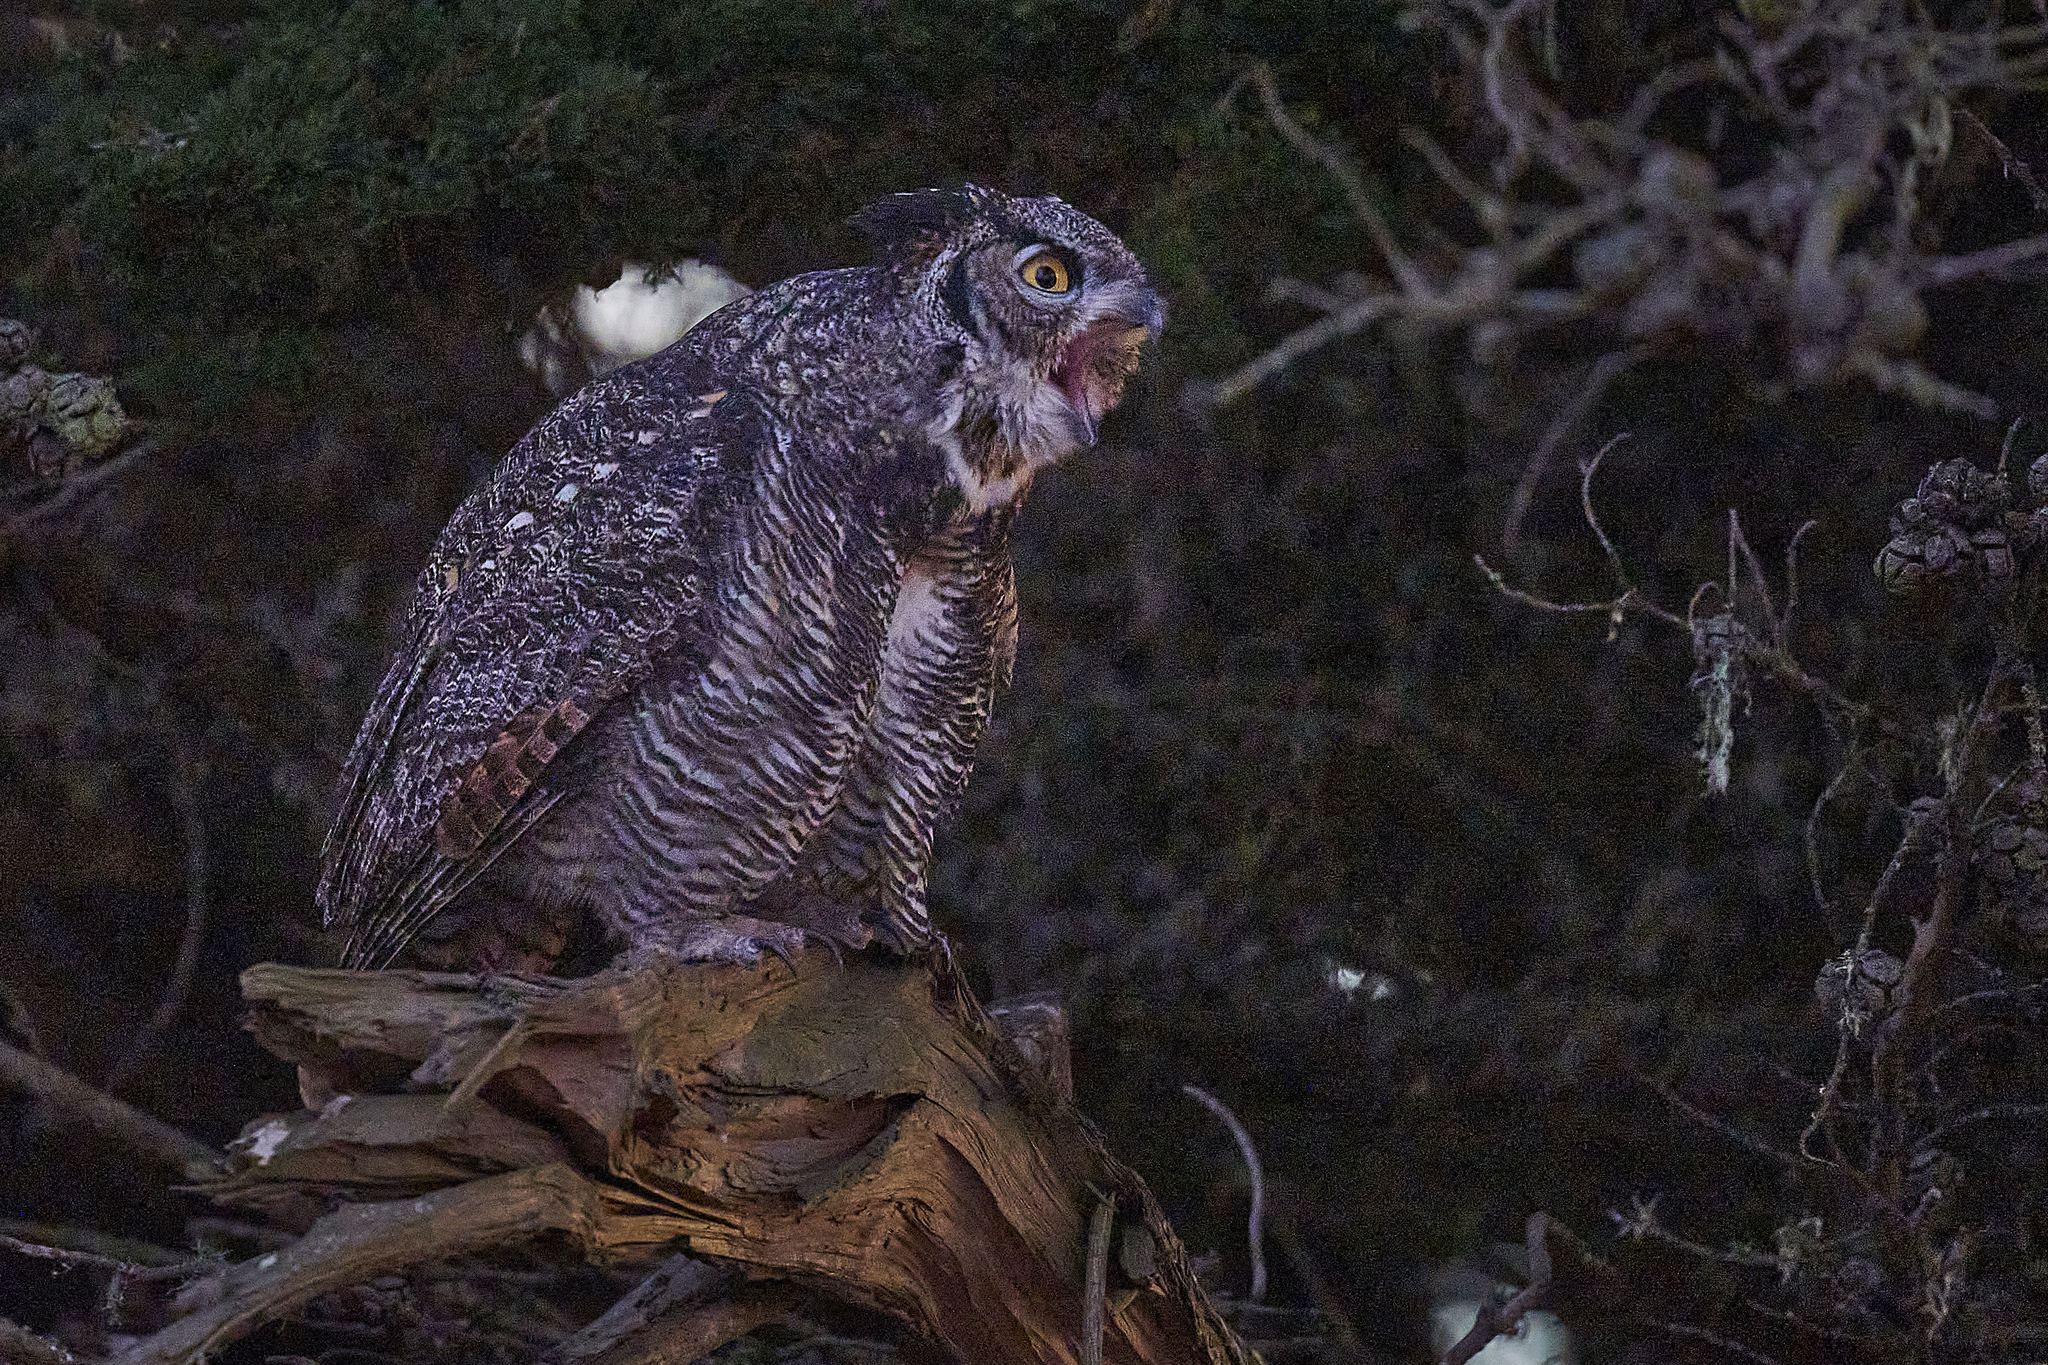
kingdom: Animalia
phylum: Chordata
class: Aves
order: Strigiformes
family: Strigidae
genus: Bubo
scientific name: Bubo virginianus
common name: Great horned owl
